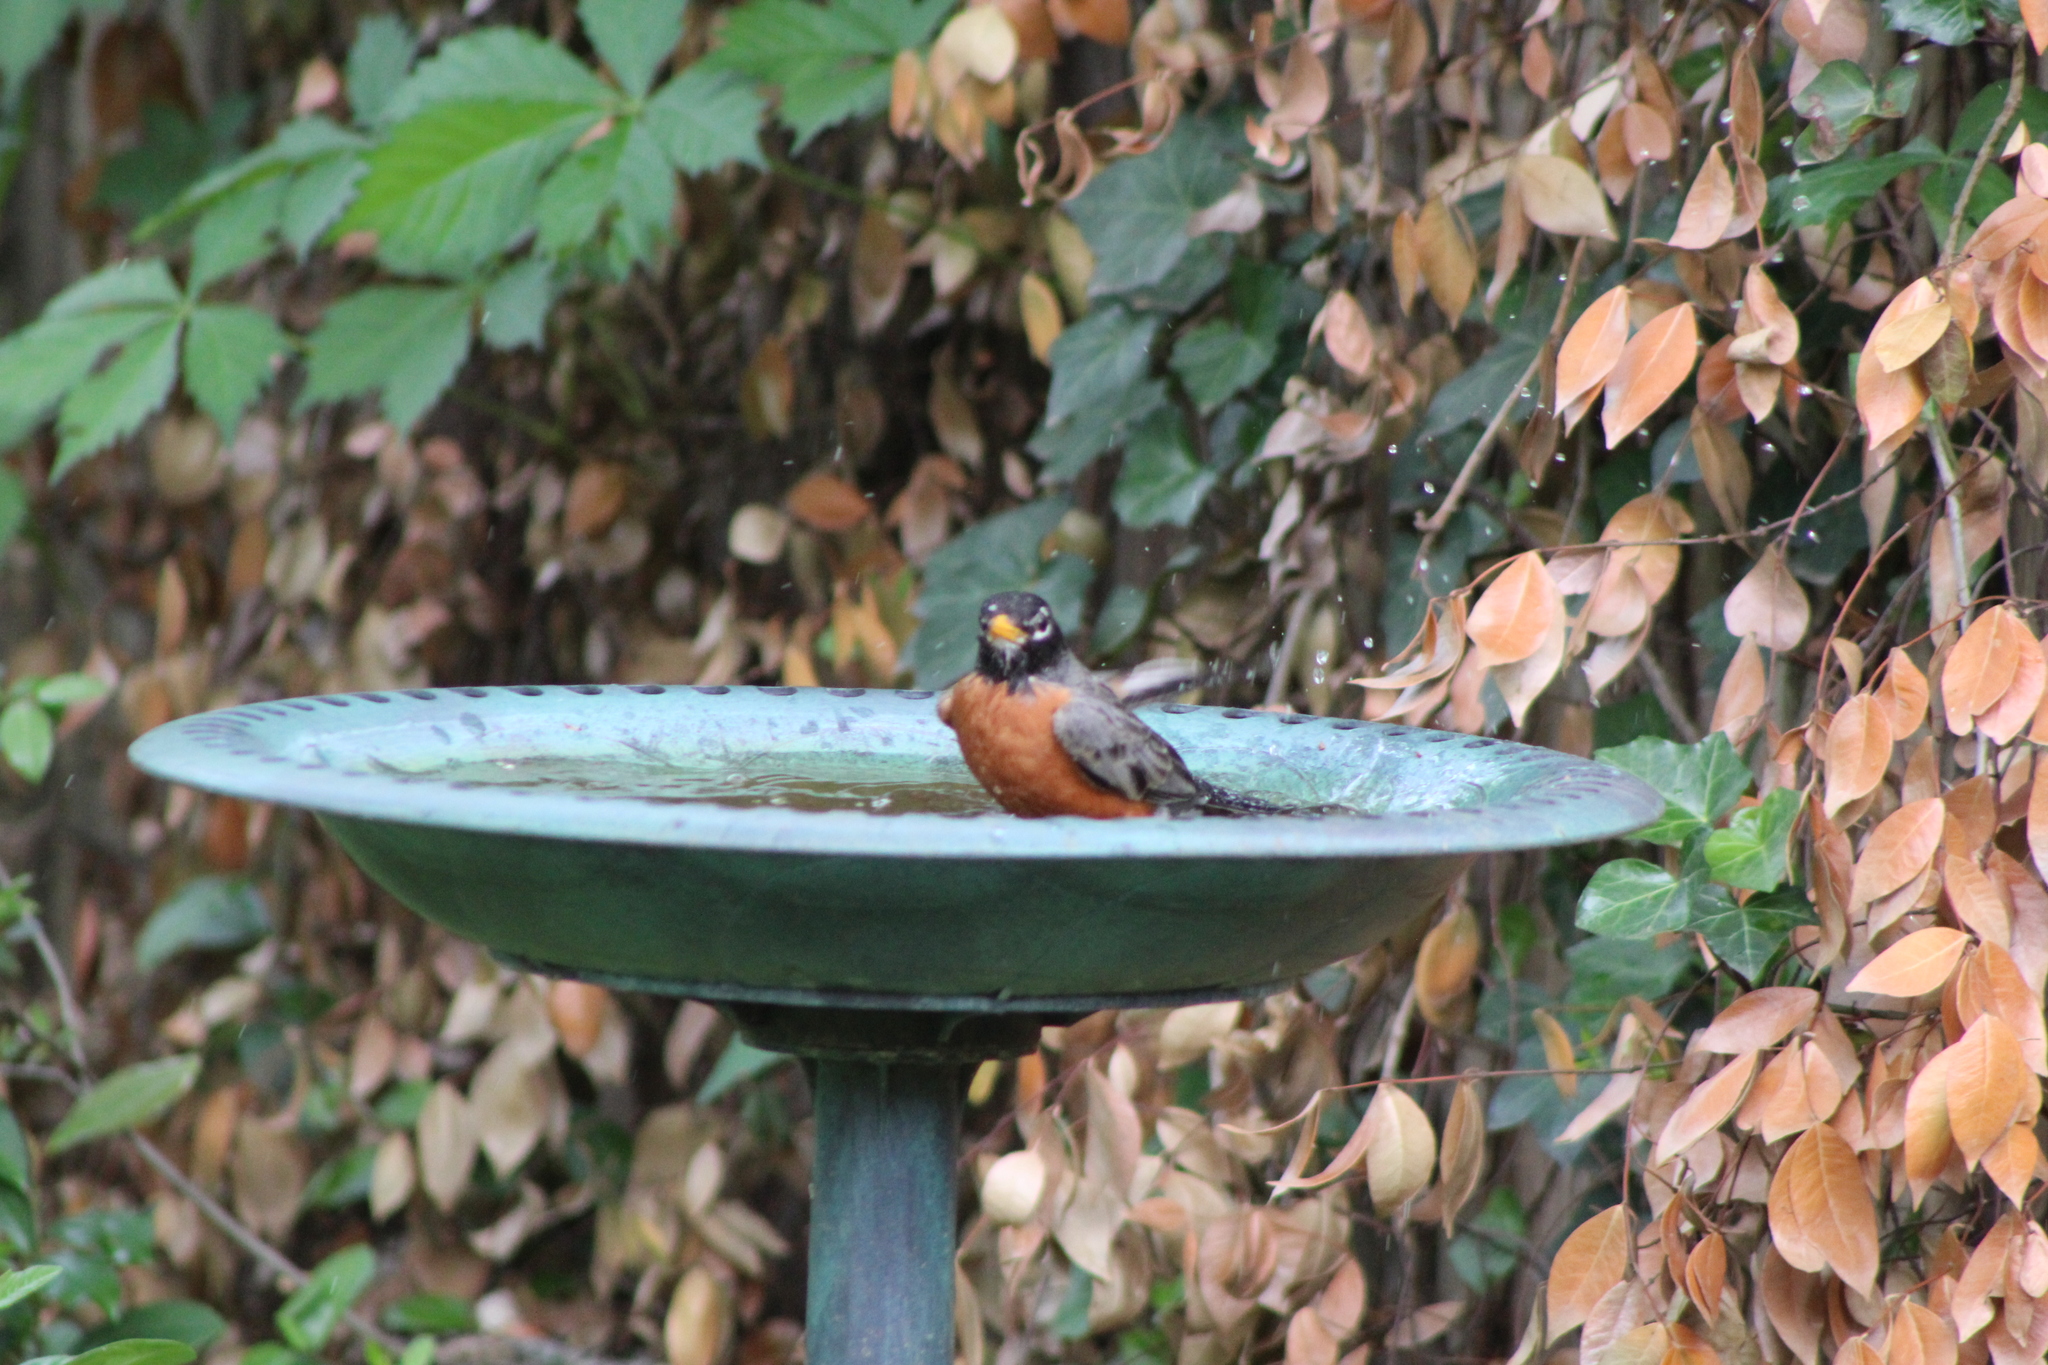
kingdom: Animalia
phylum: Chordata
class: Aves
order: Passeriformes
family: Turdidae
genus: Turdus
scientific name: Turdus migratorius
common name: American robin
